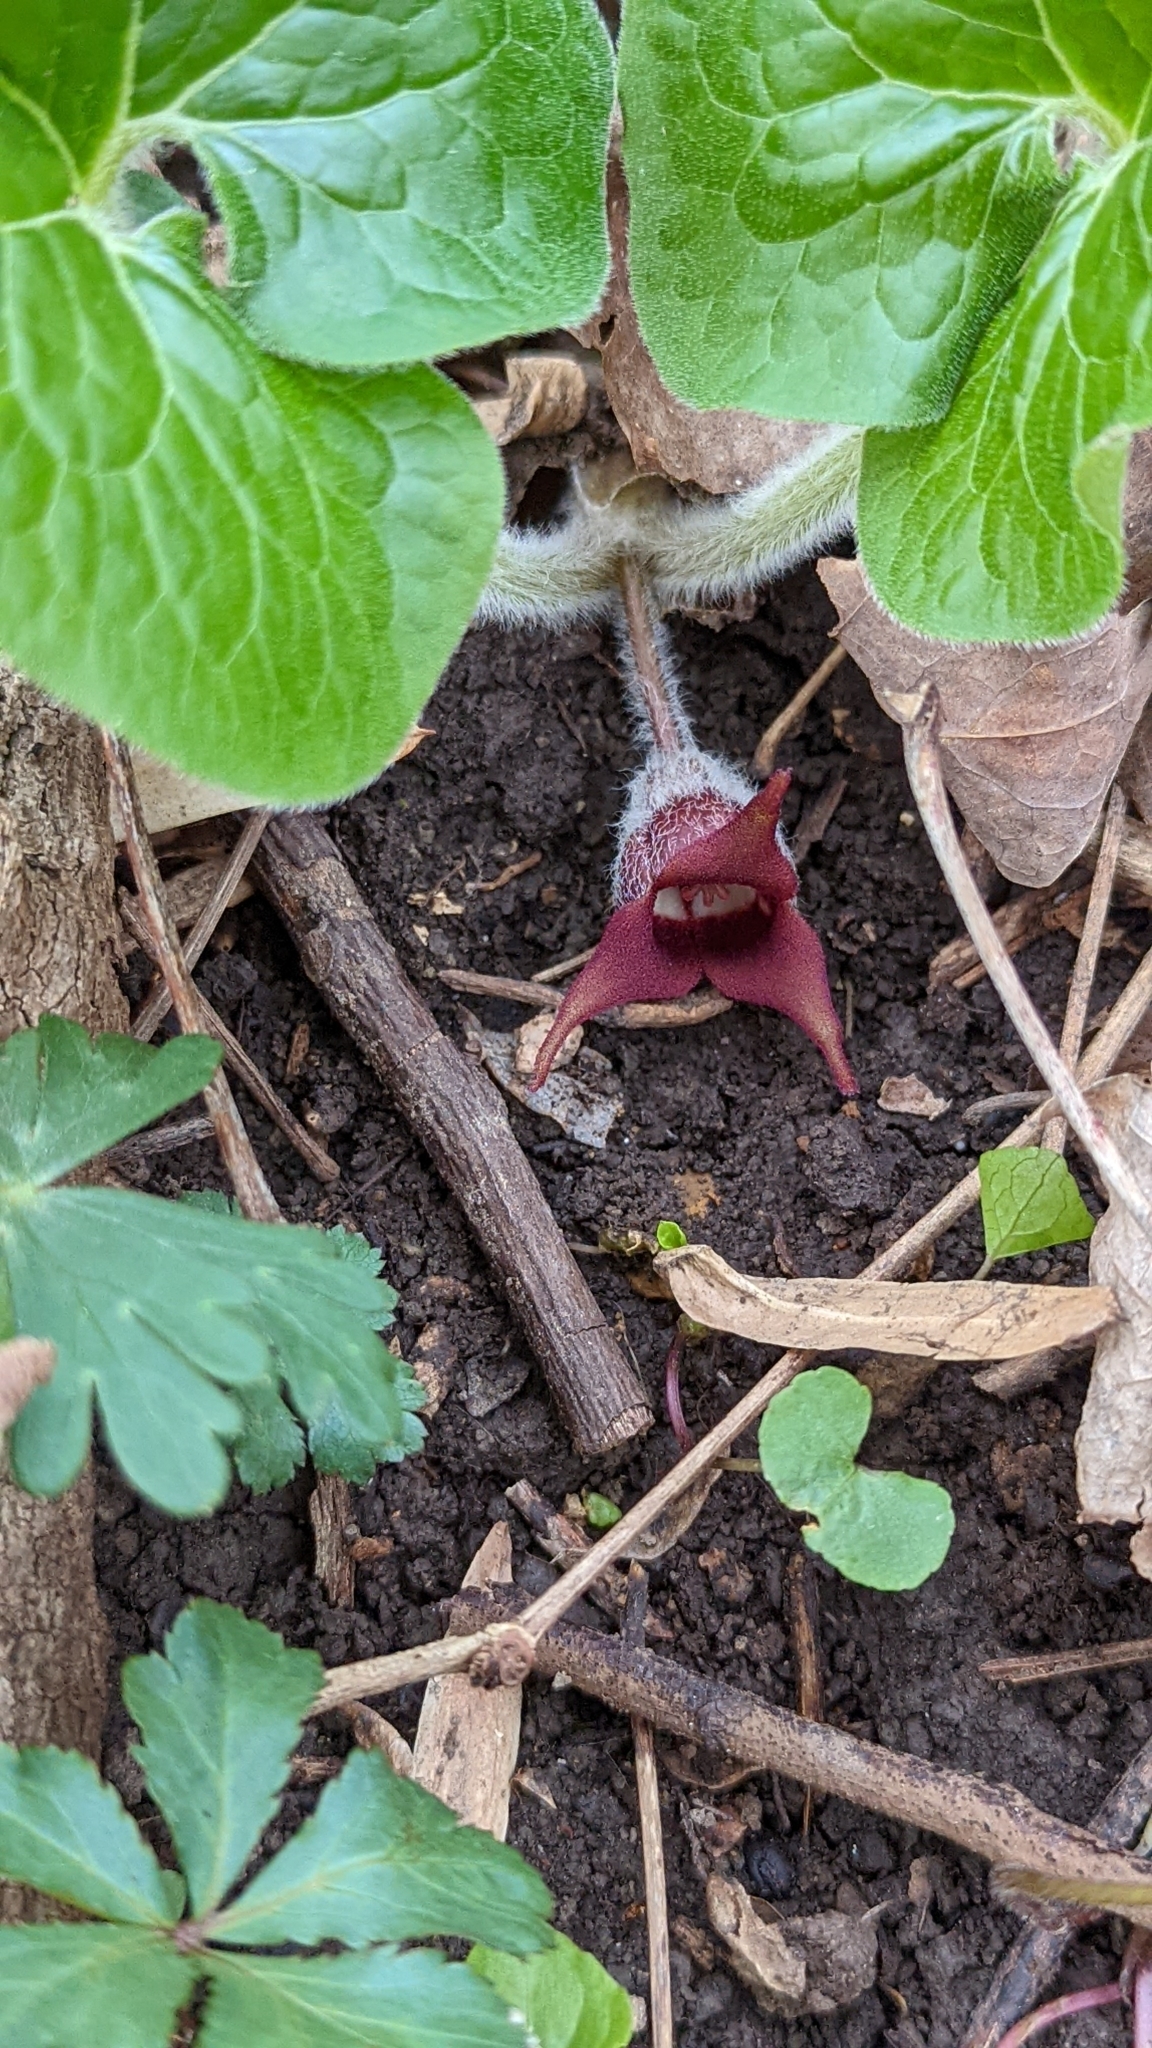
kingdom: Plantae
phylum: Tracheophyta
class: Magnoliopsida
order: Piperales
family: Aristolochiaceae
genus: Asarum
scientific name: Asarum canadense
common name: Wild ginger
